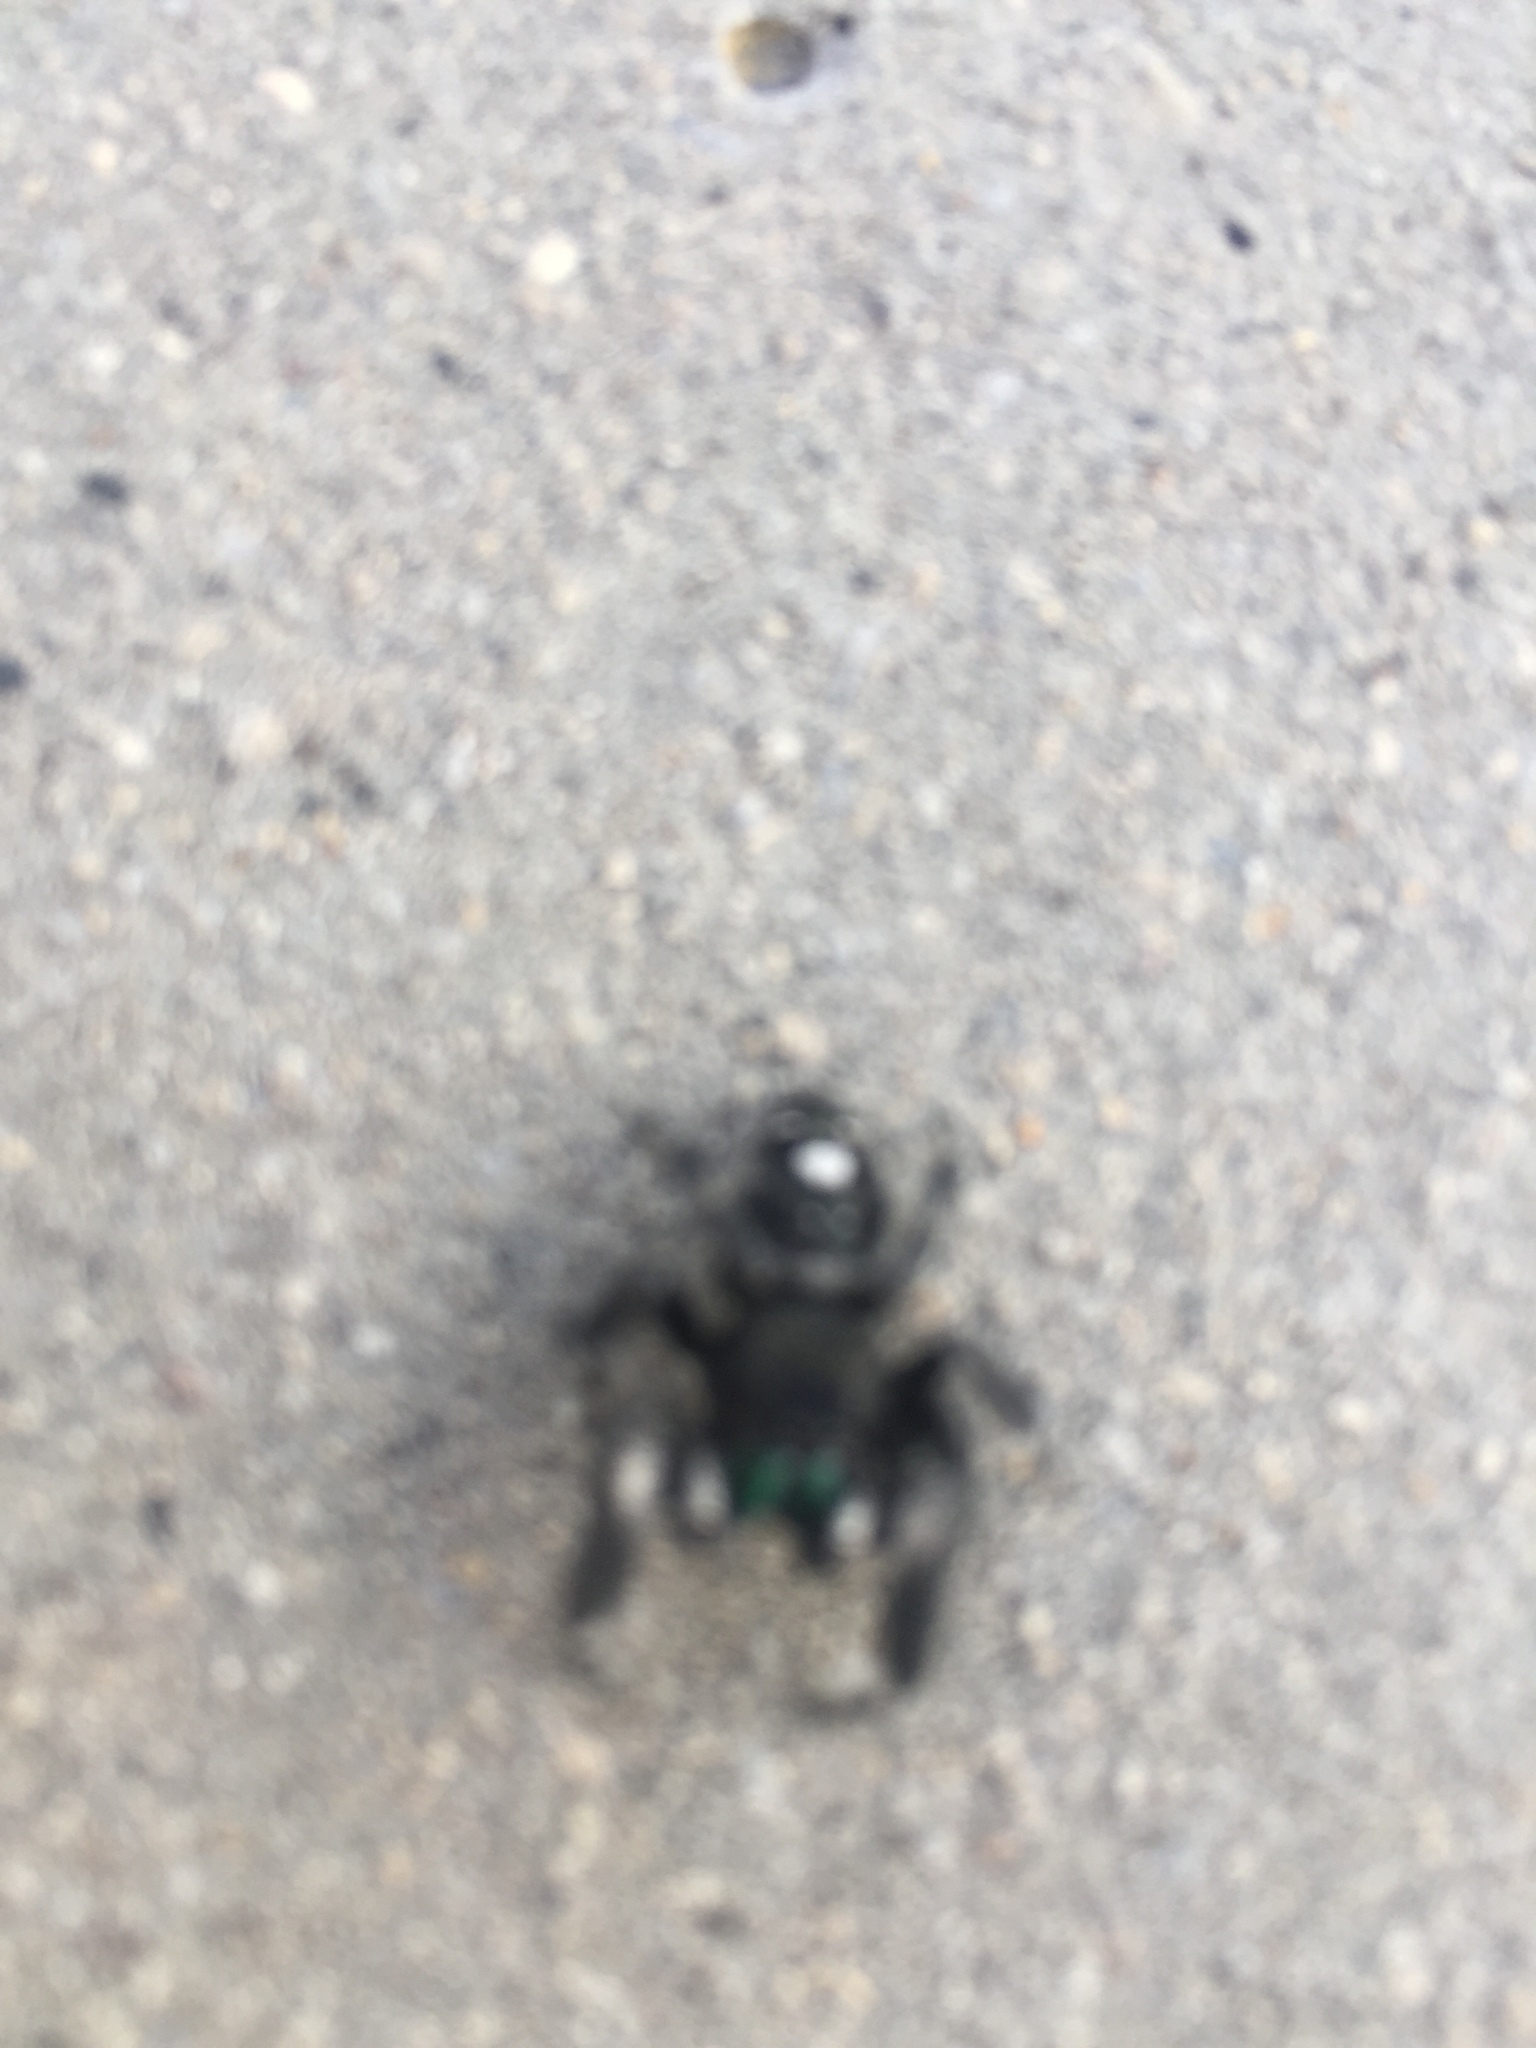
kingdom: Animalia
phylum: Arthropoda
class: Arachnida
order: Araneae
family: Salticidae
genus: Phidippus
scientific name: Phidippus audax
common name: Bold jumper
